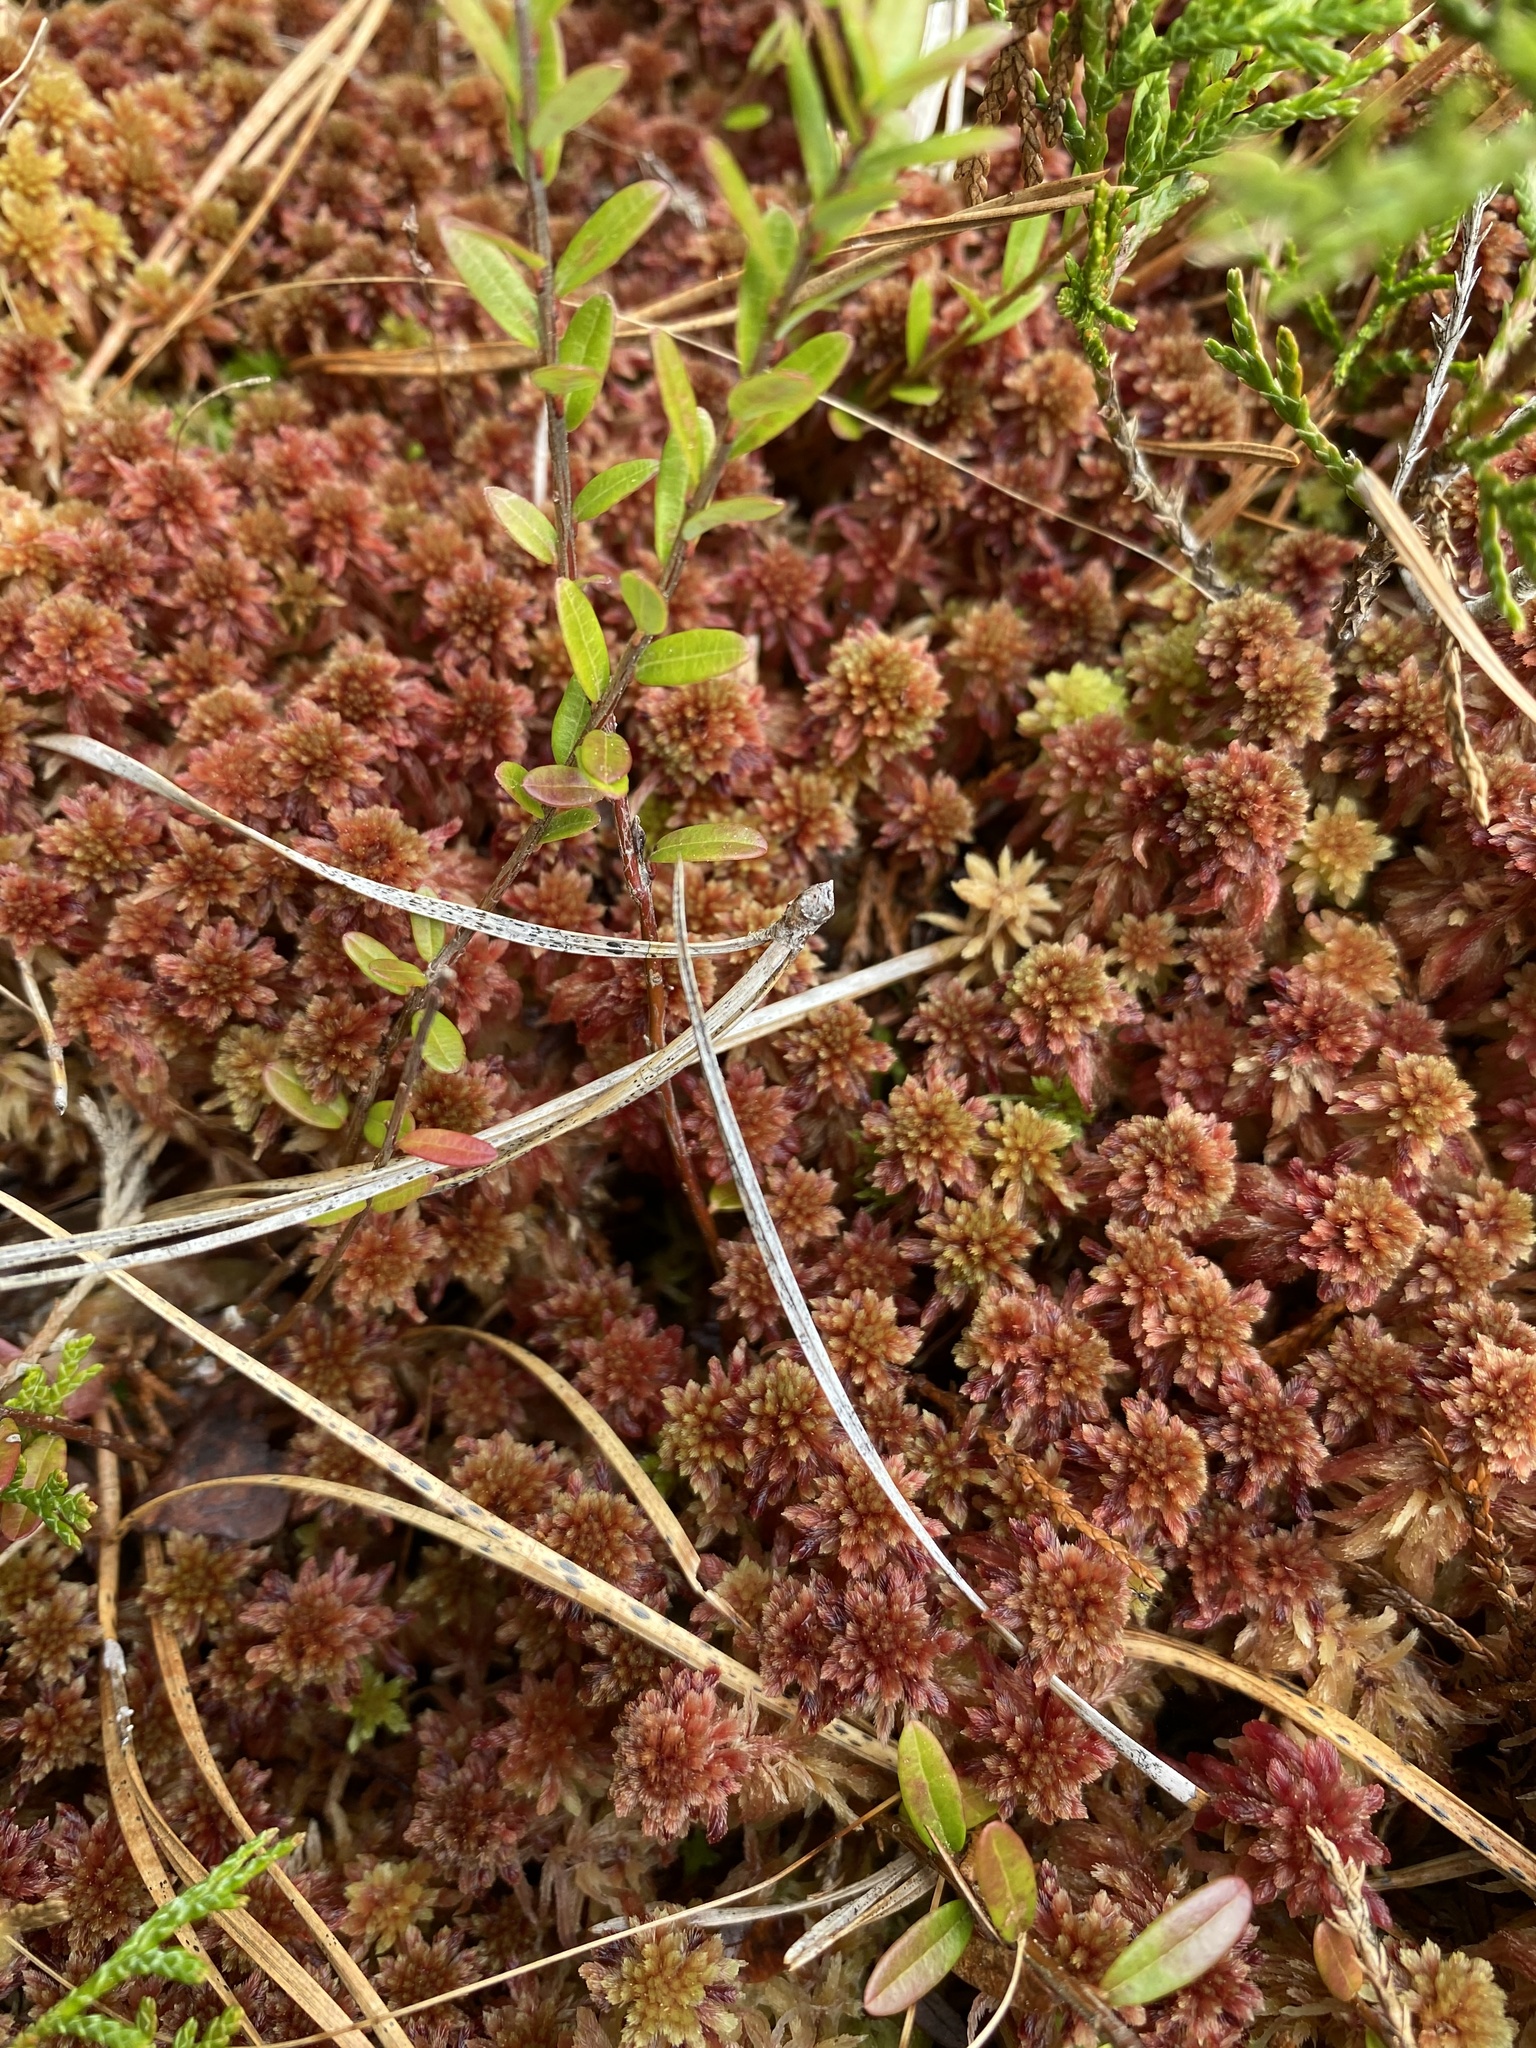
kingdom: Plantae
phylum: Bryophyta
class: Sphagnopsida
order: Sphagnales
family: Sphagnaceae
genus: Sphagnum
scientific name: Sphagnum tenerum
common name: Slender peat moss
